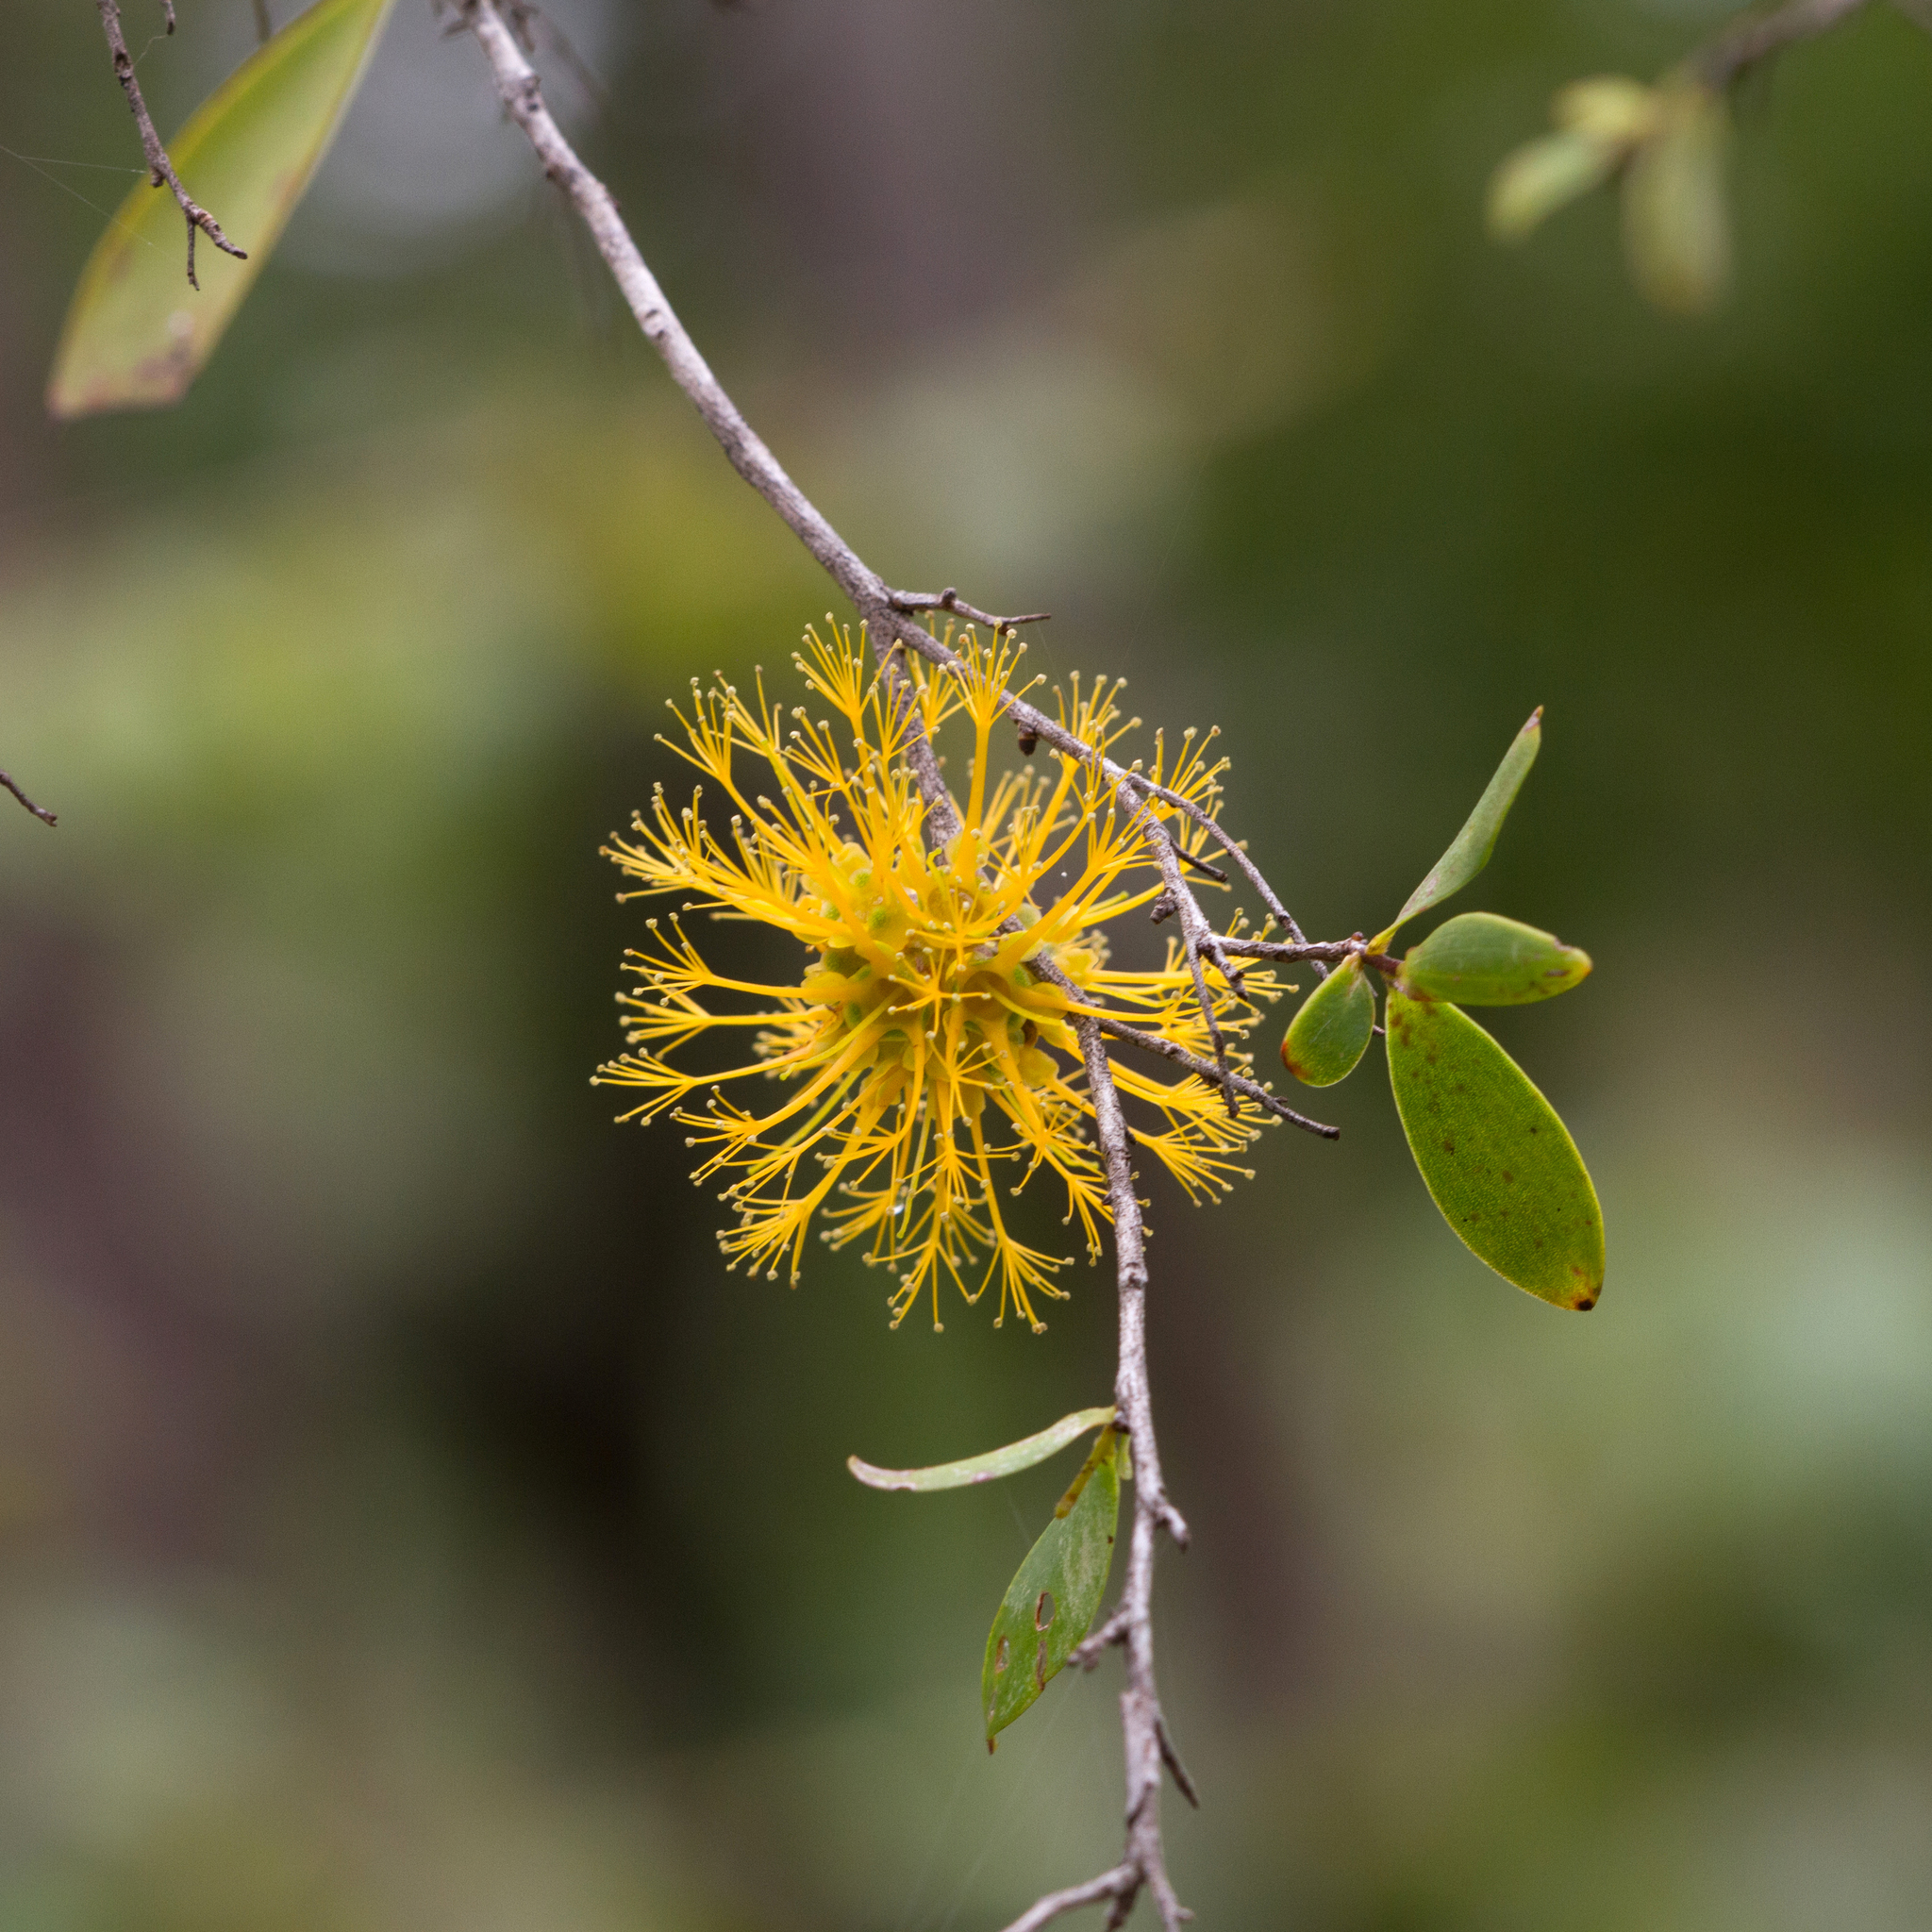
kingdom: Plantae
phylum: Tracheophyta
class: Magnoliopsida
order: Myrtales
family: Myrtaceae
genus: Asteromyrtus
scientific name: Asteromyrtus symphyocarpa
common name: Liniment-tree
